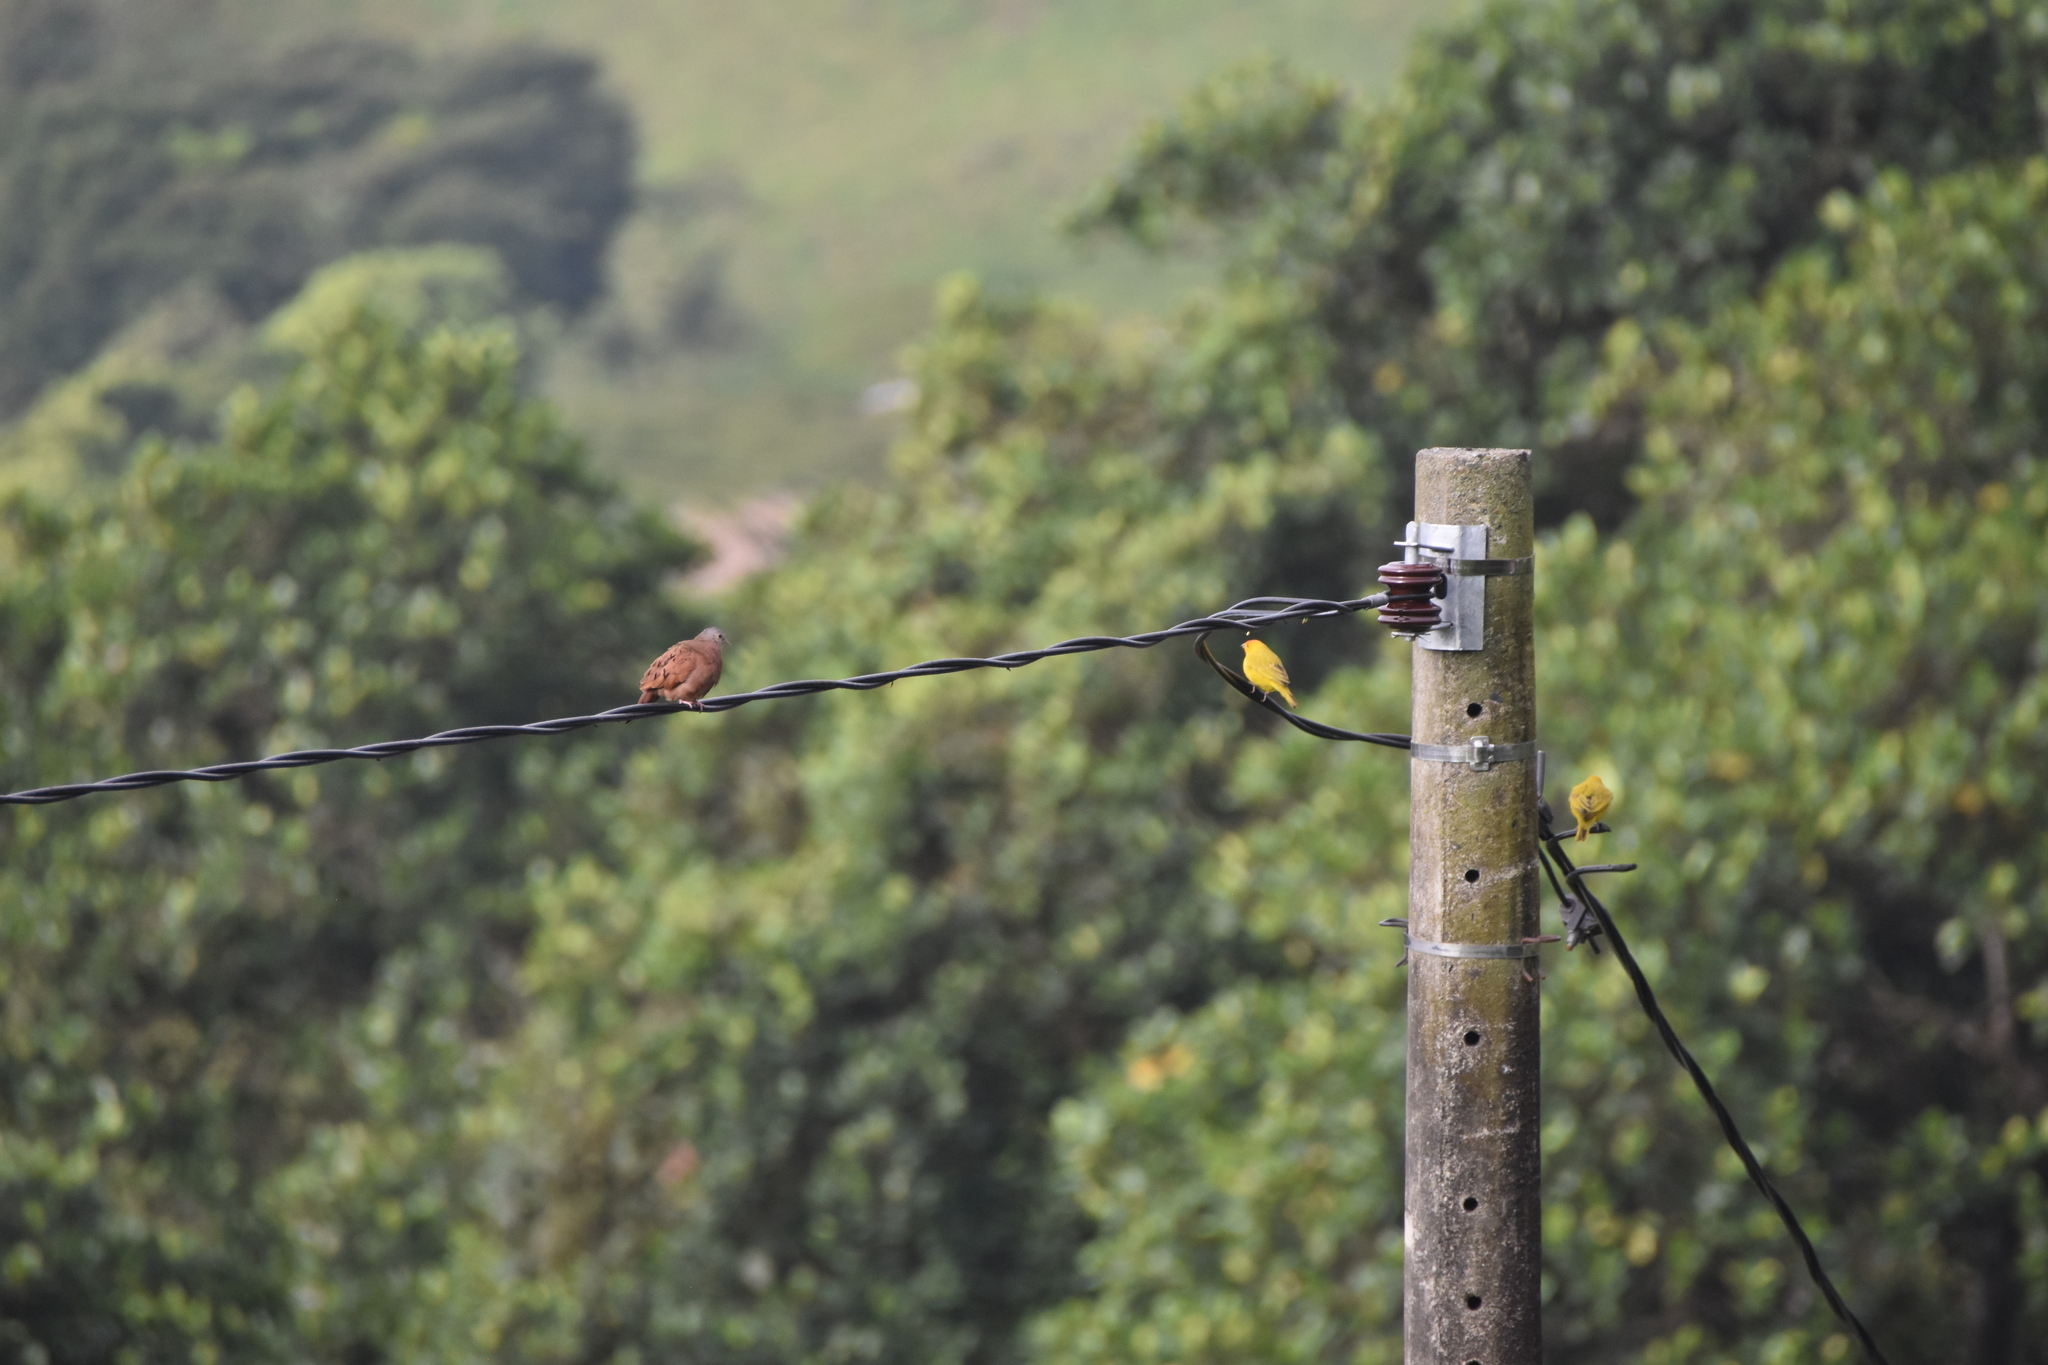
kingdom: Animalia
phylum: Chordata
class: Aves
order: Columbiformes
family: Columbidae
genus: Columbina
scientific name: Columbina talpacoti
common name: Ruddy ground dove
